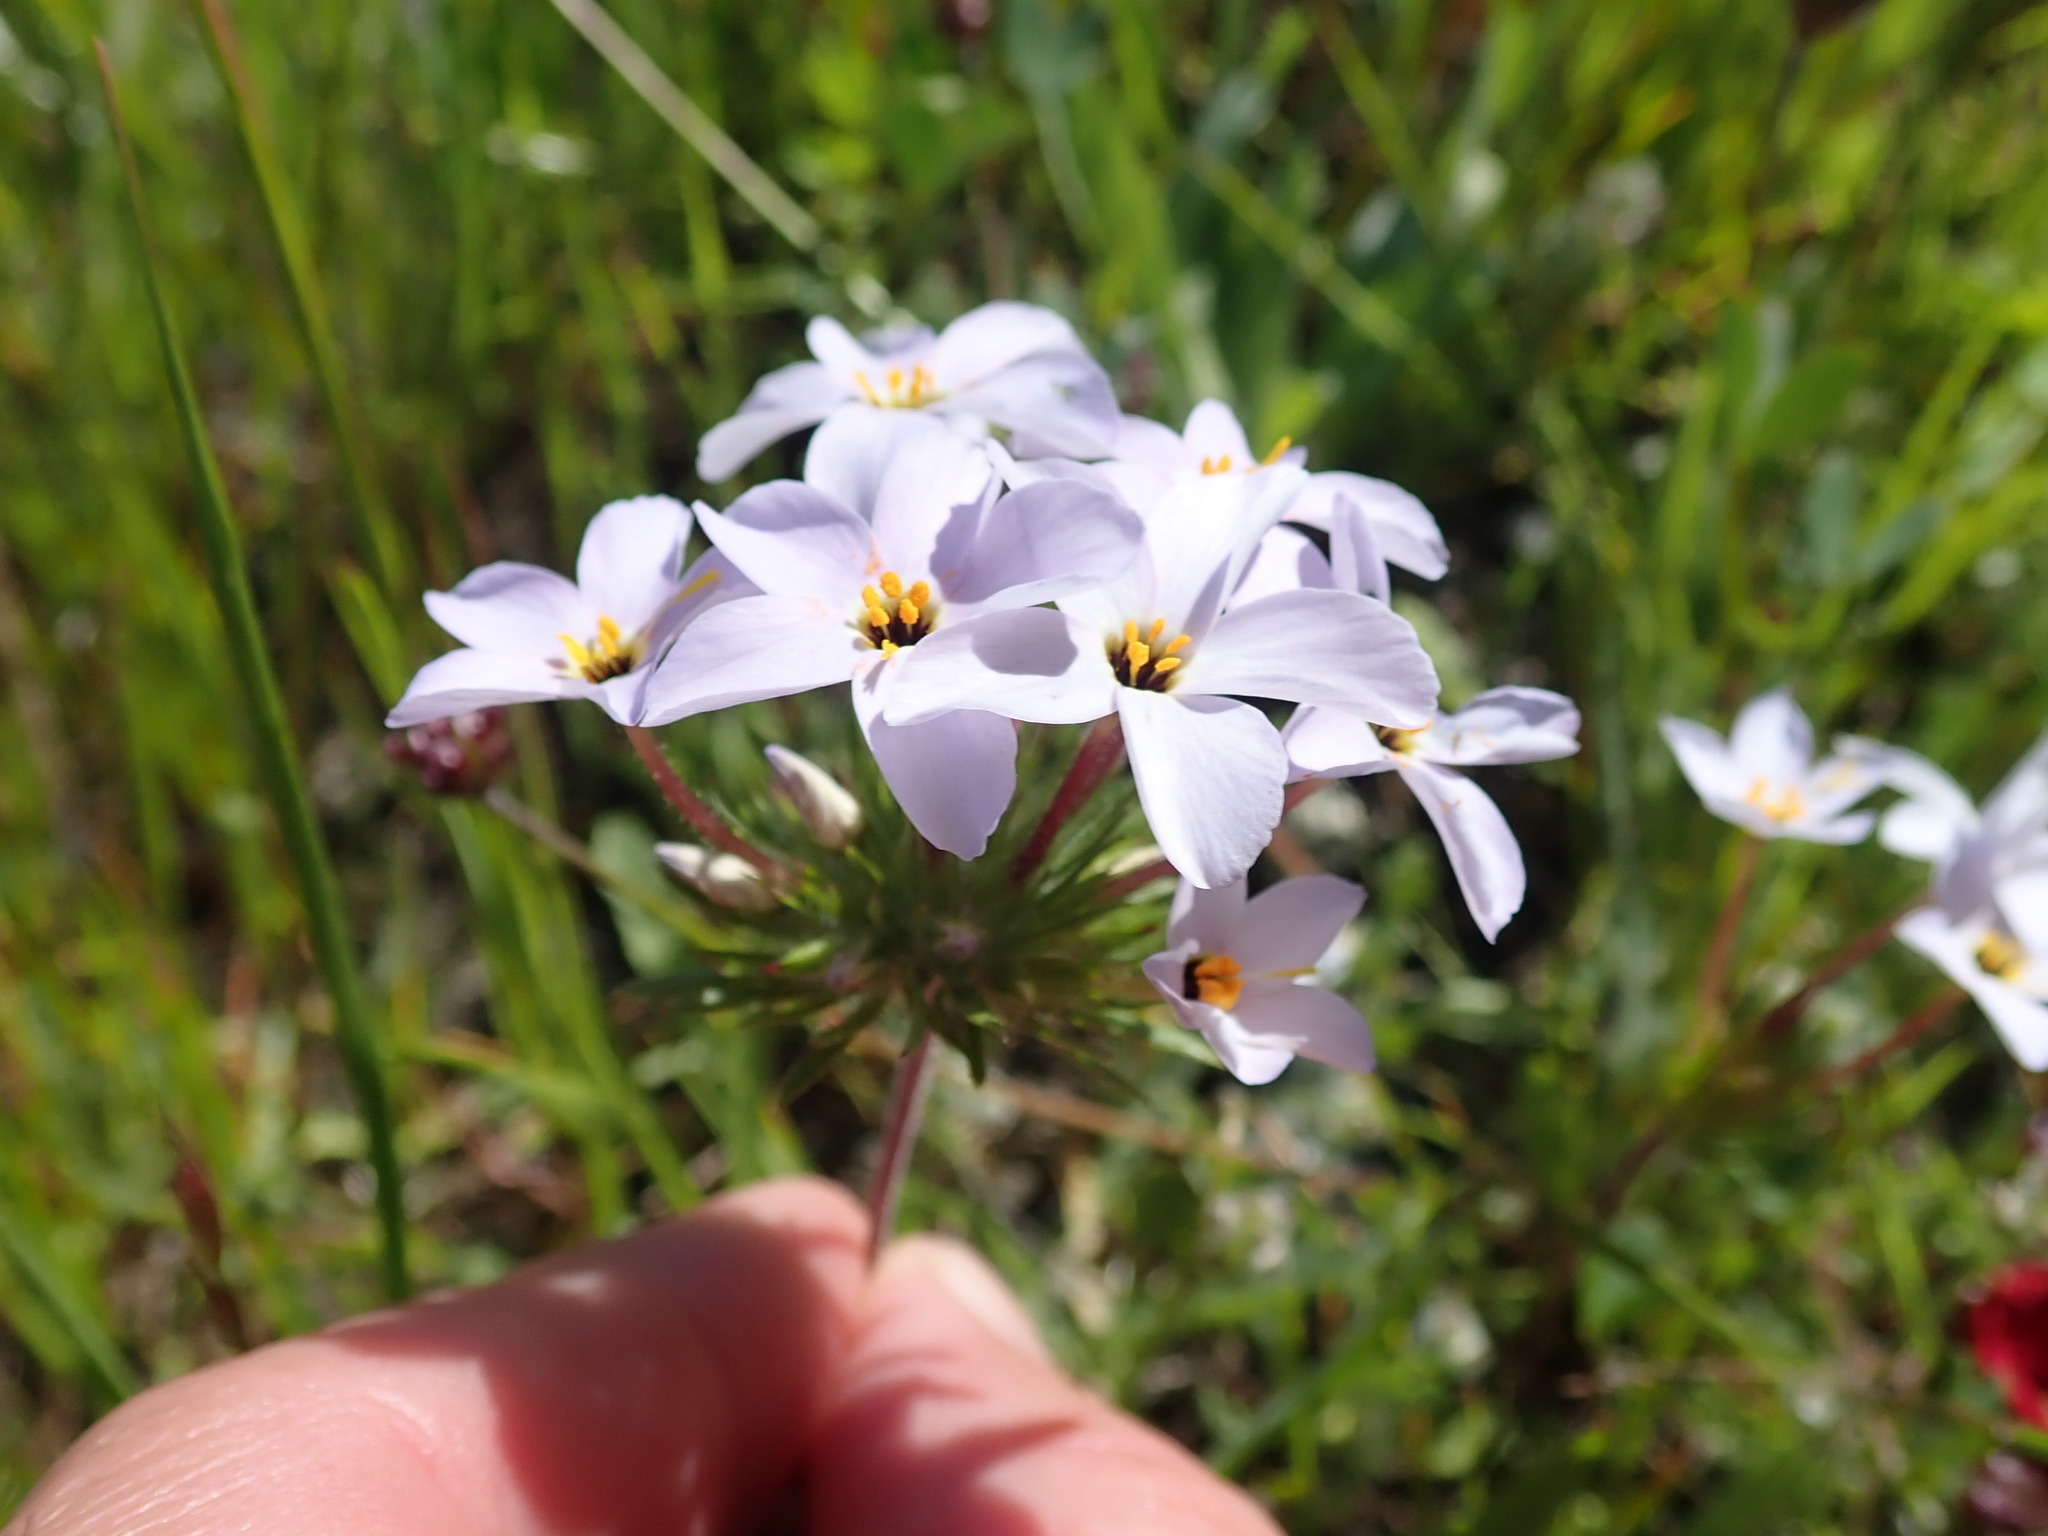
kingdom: Plantae
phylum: Tracheophyta
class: Magnoliopsida
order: Ericales
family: Polemoniaceae
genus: Leptosiphon
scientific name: Leptosiphon androsaceus
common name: False babystars
